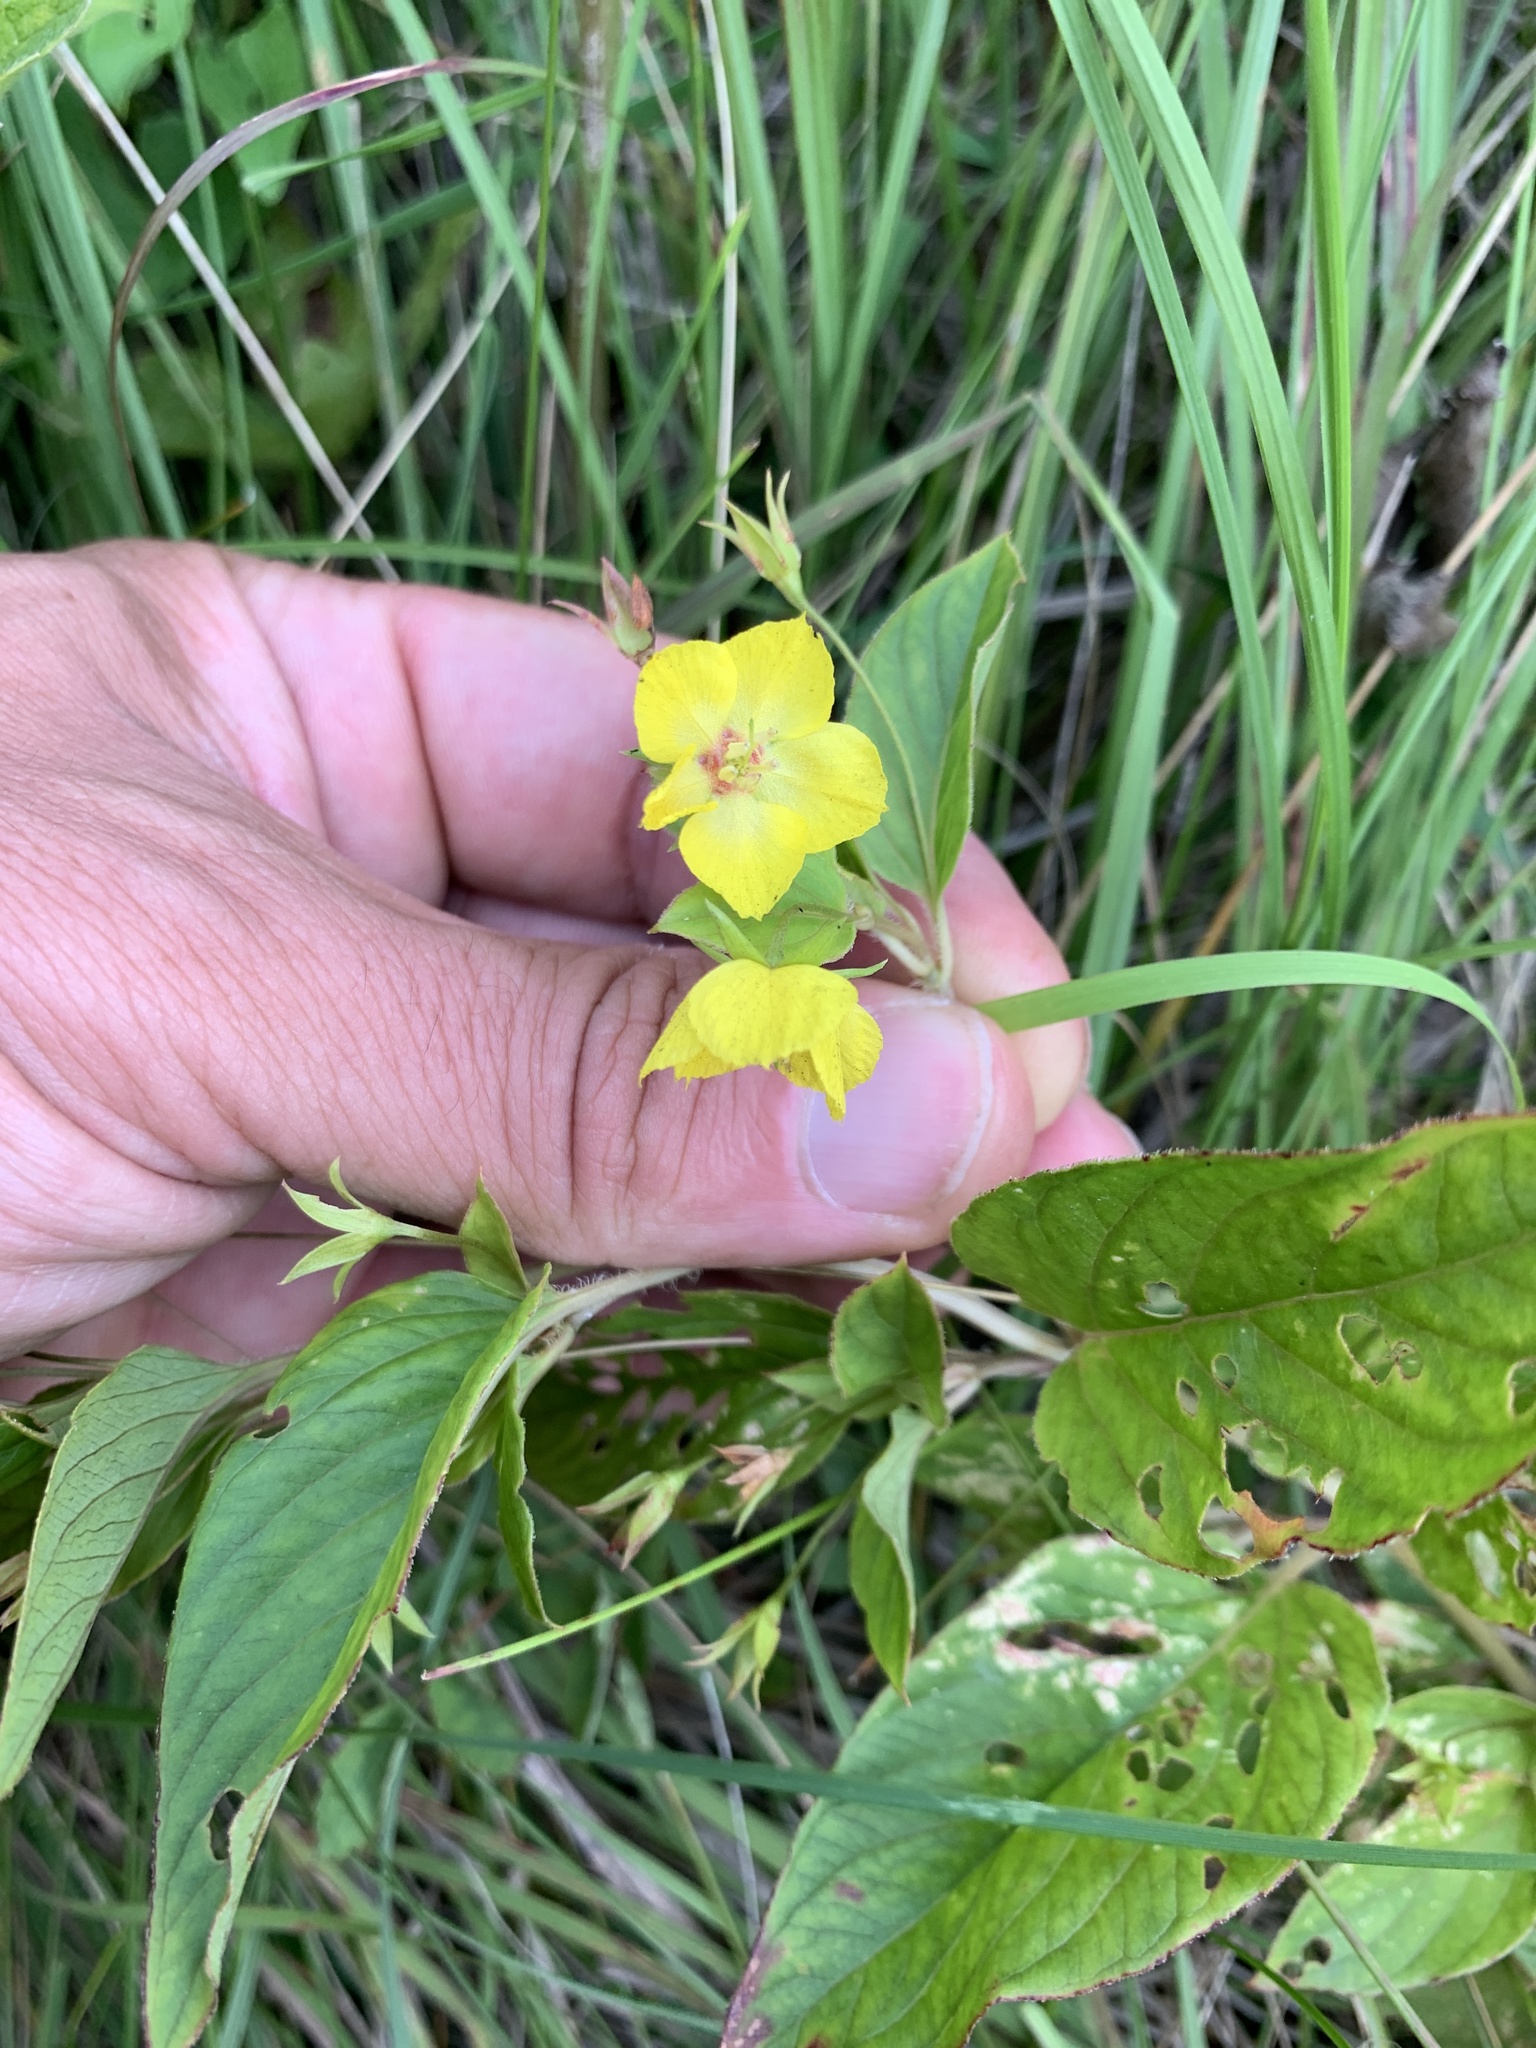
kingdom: Plantae
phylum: Tracheophyta
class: Magnoliopsida
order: Ericales
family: Primulaceae
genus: Lysimachia
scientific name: Lysimachia ciliata
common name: Fringed loosestrife
